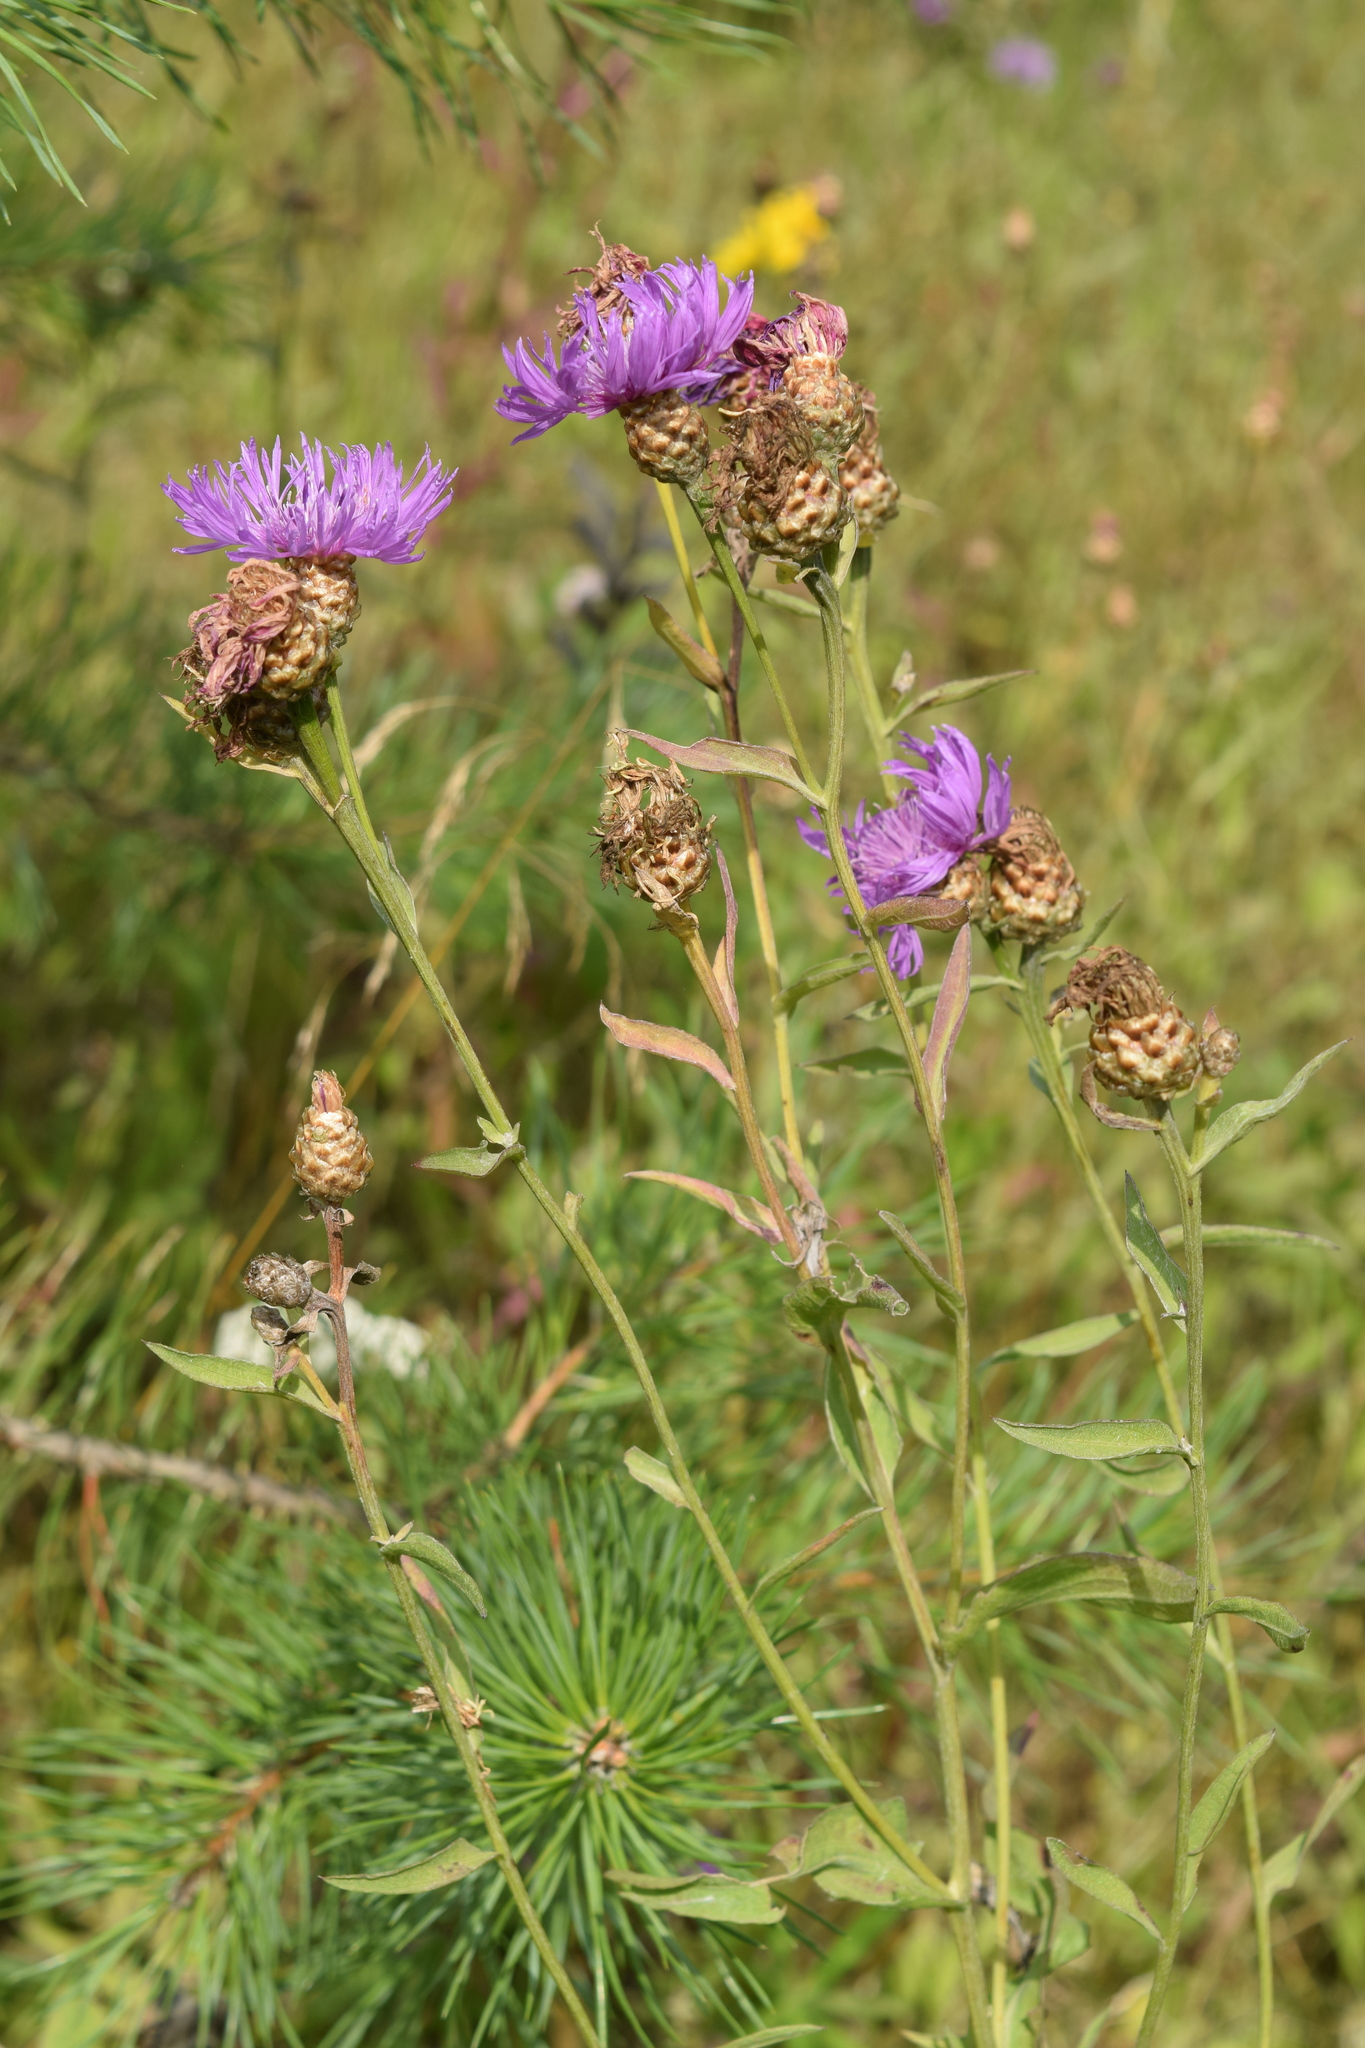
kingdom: Plantae
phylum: Tracheophyta
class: Magnoliopsida
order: Asterales
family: Asteraceae
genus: Centaurea
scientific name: Centaurea jacea
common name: Brown knapweed
